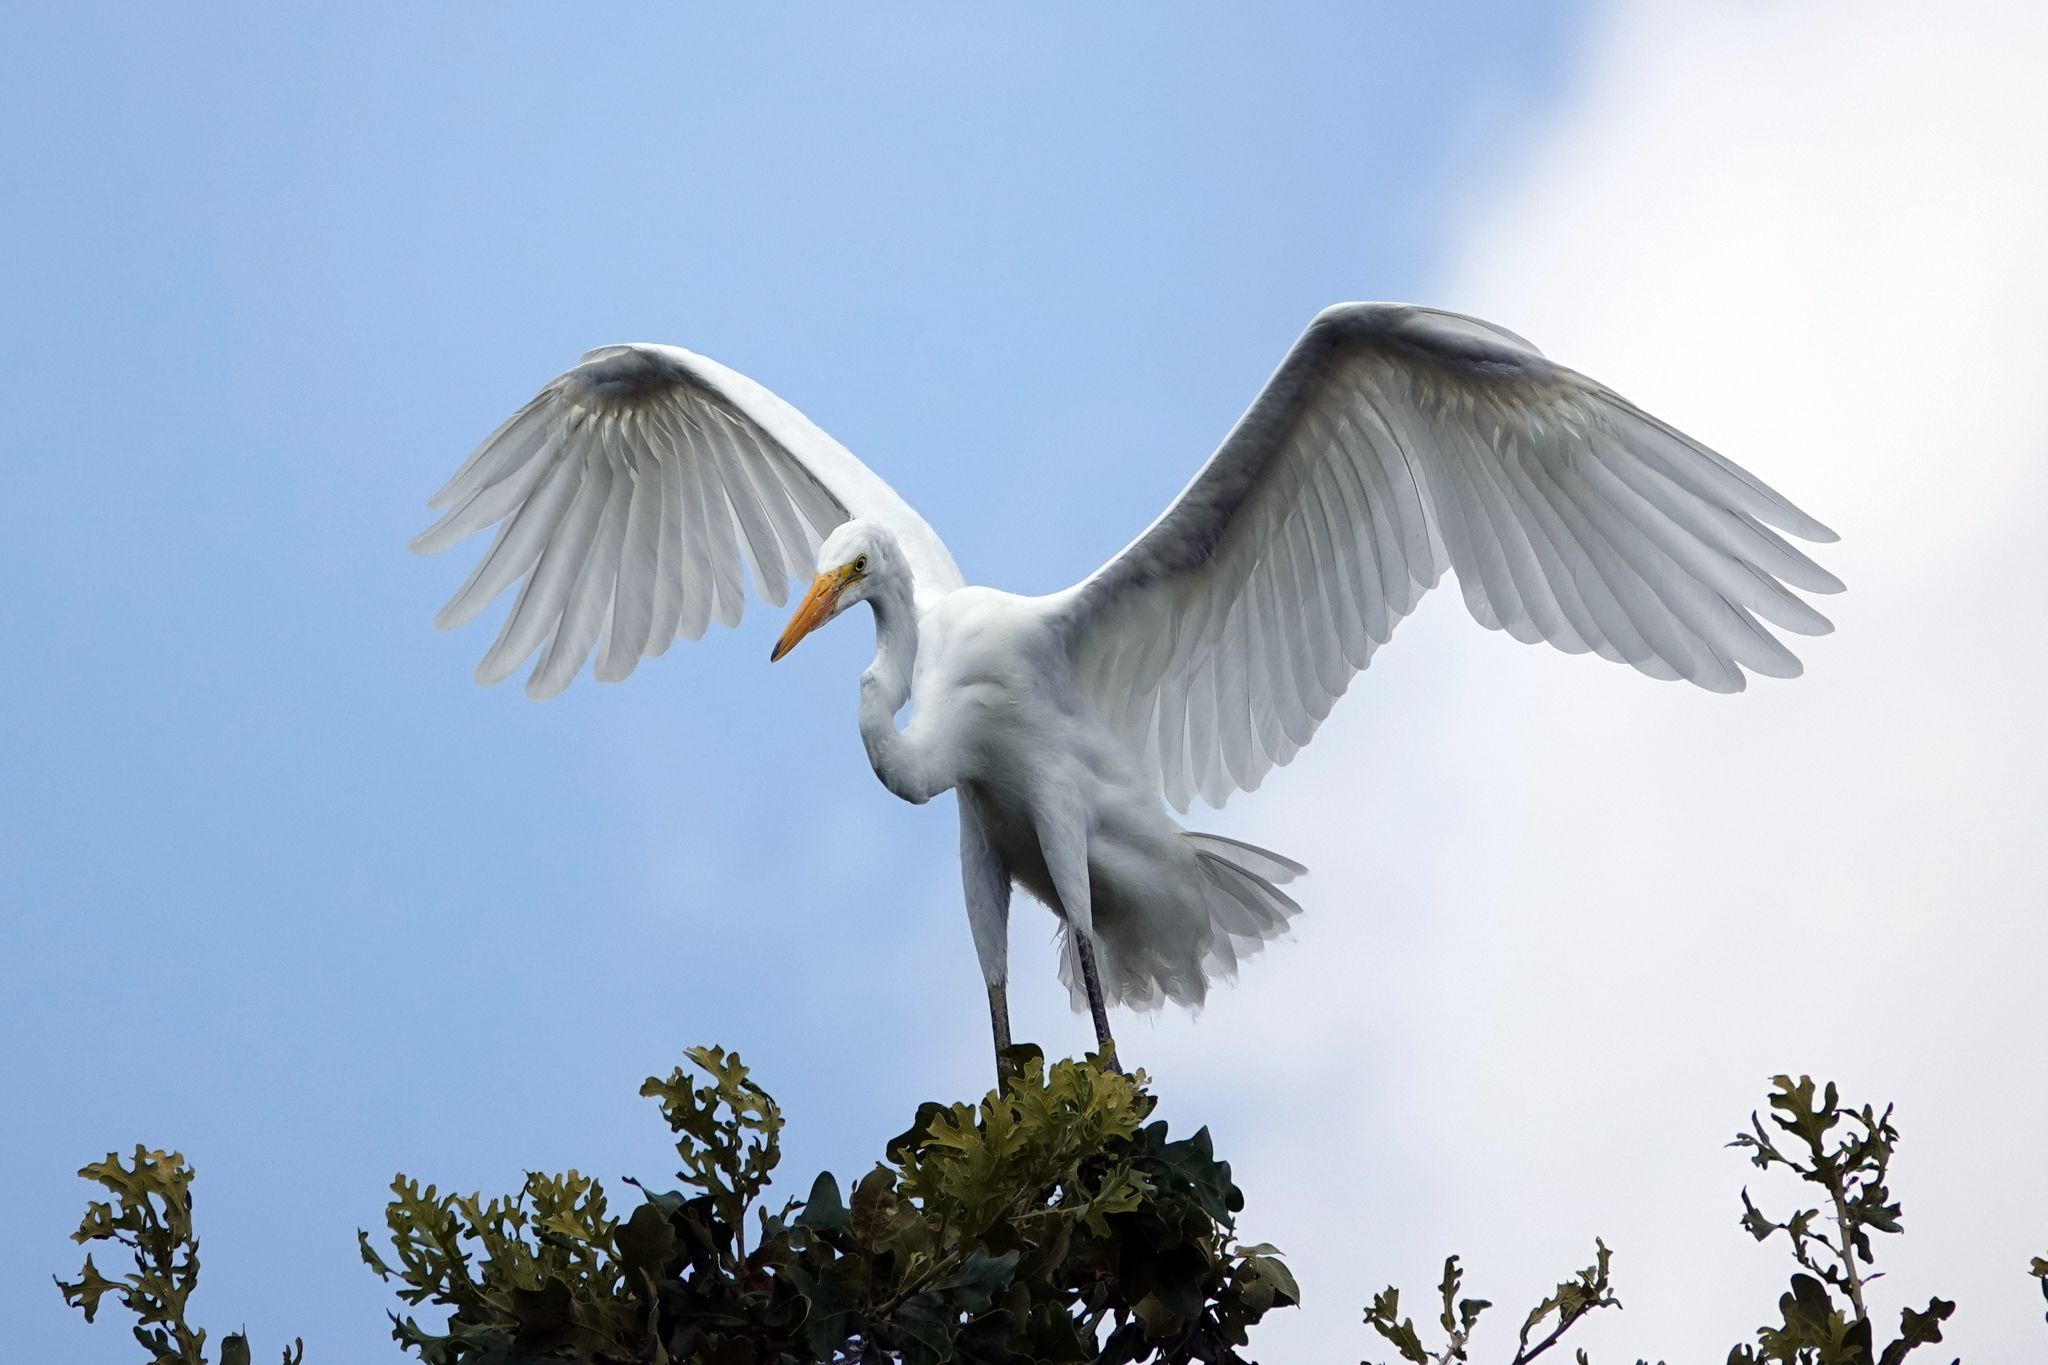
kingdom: Animalia
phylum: Chordata
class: Aves
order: Pelecaniformes
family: Ardeidae
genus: Ardea
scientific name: Ardea alba
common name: Great egret
